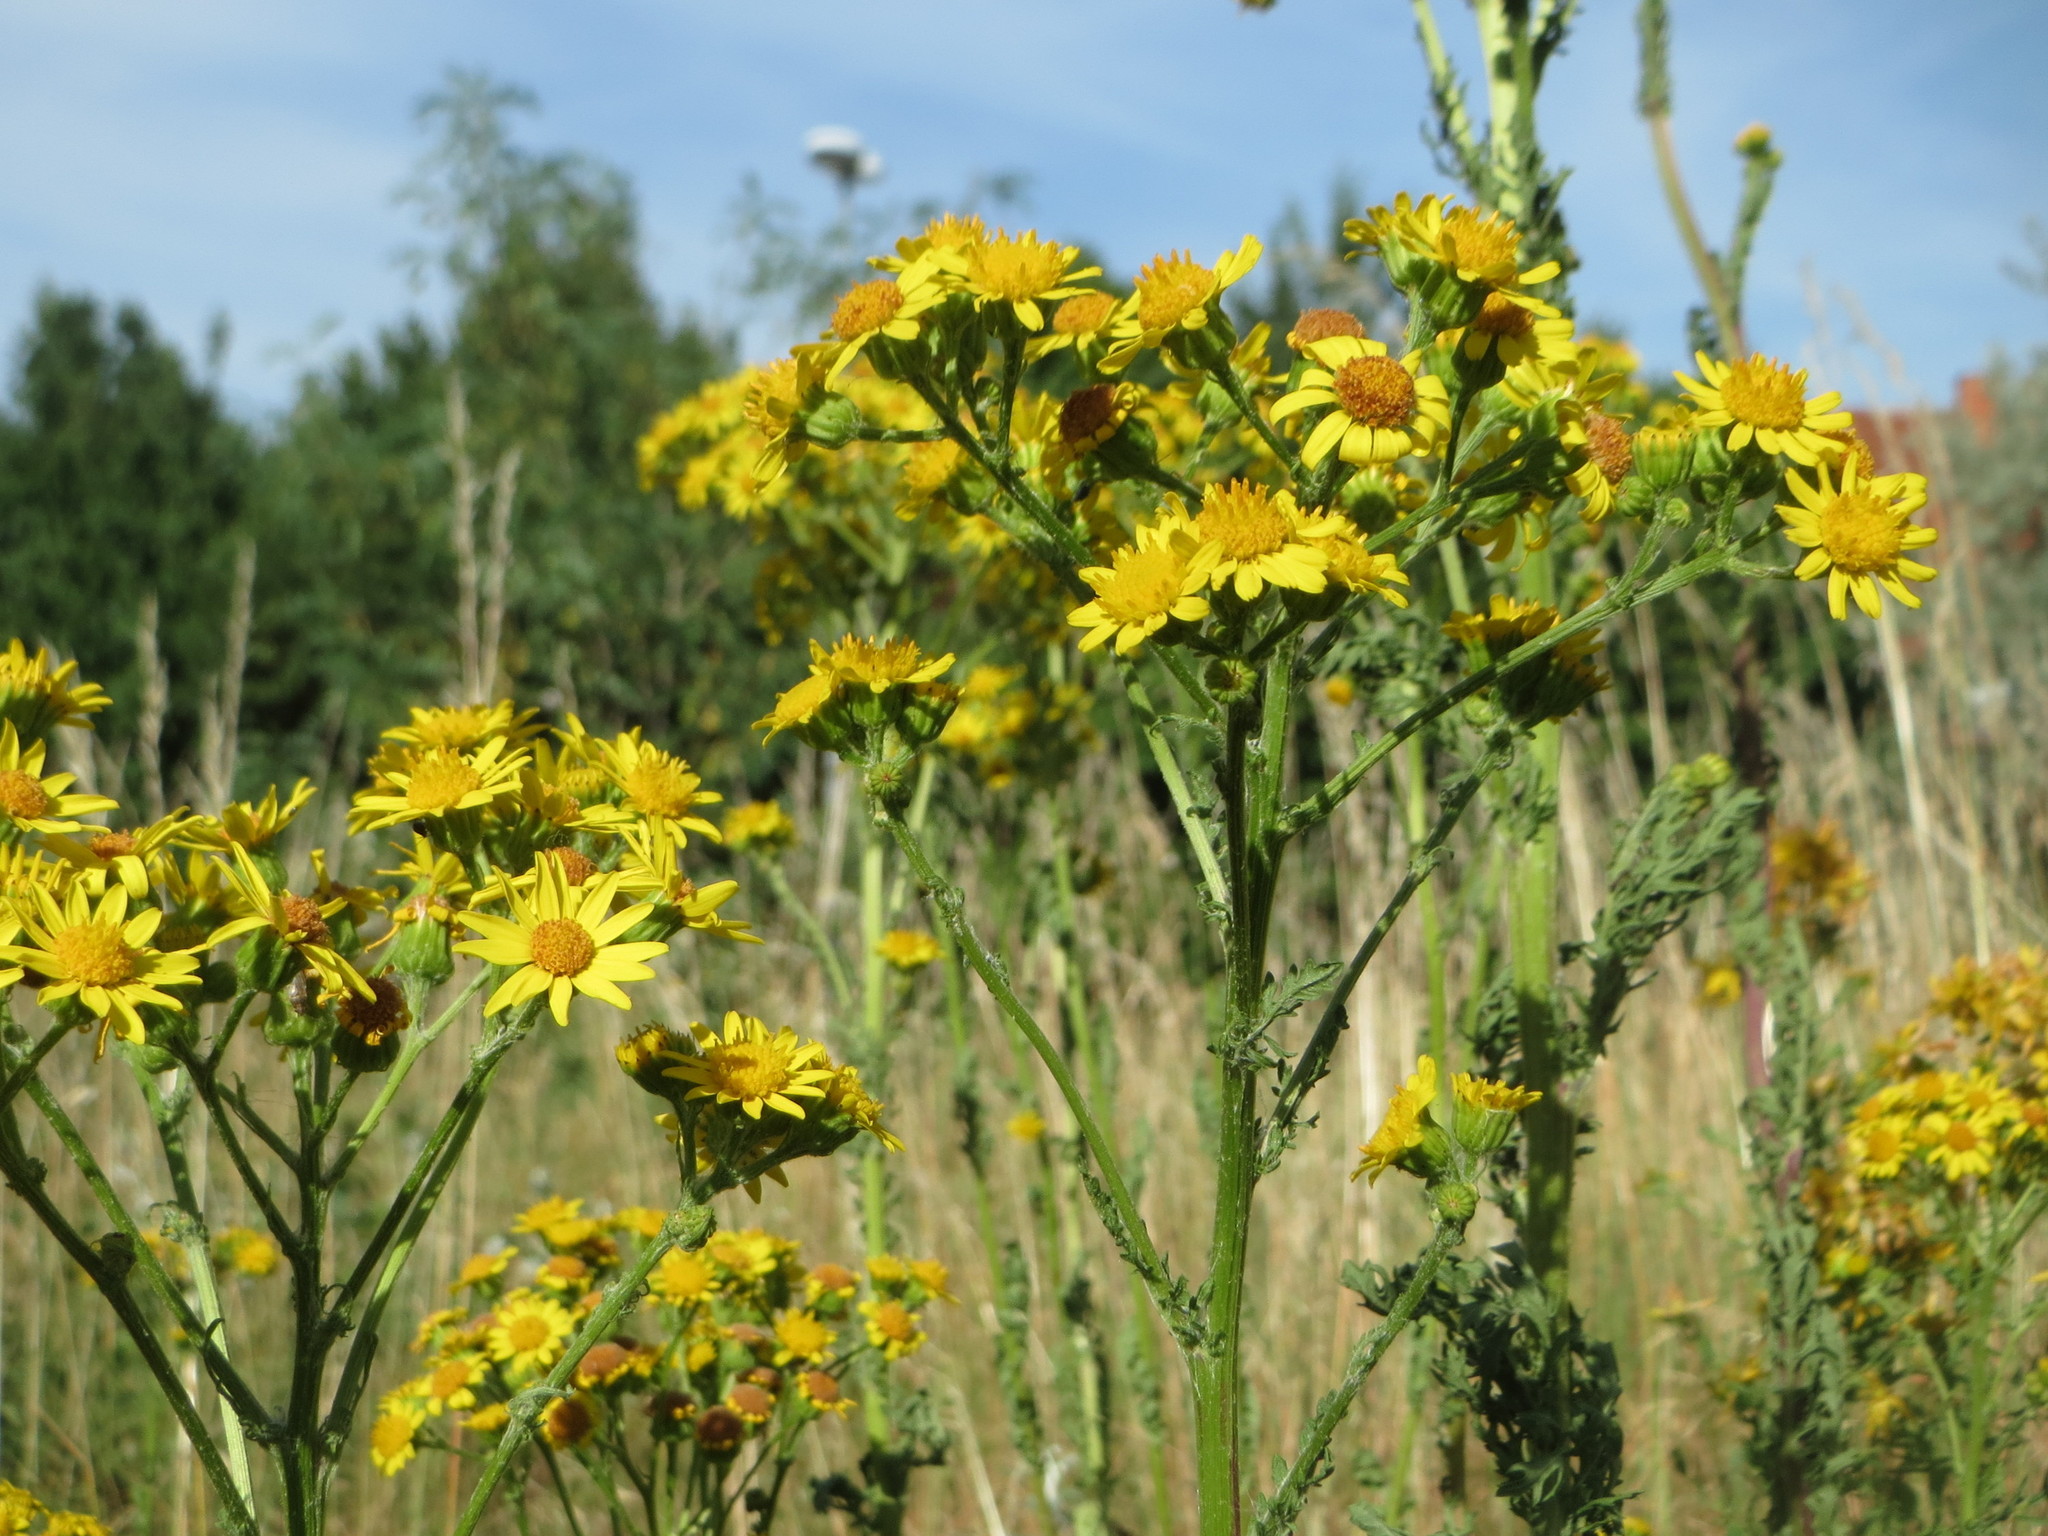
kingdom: Plantae
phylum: Tracheophyta
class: Magnoliopsida
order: Asterales
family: Asteraceae
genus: Jacobaea
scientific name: Jacobaea vulgaris
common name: Stinking willie
